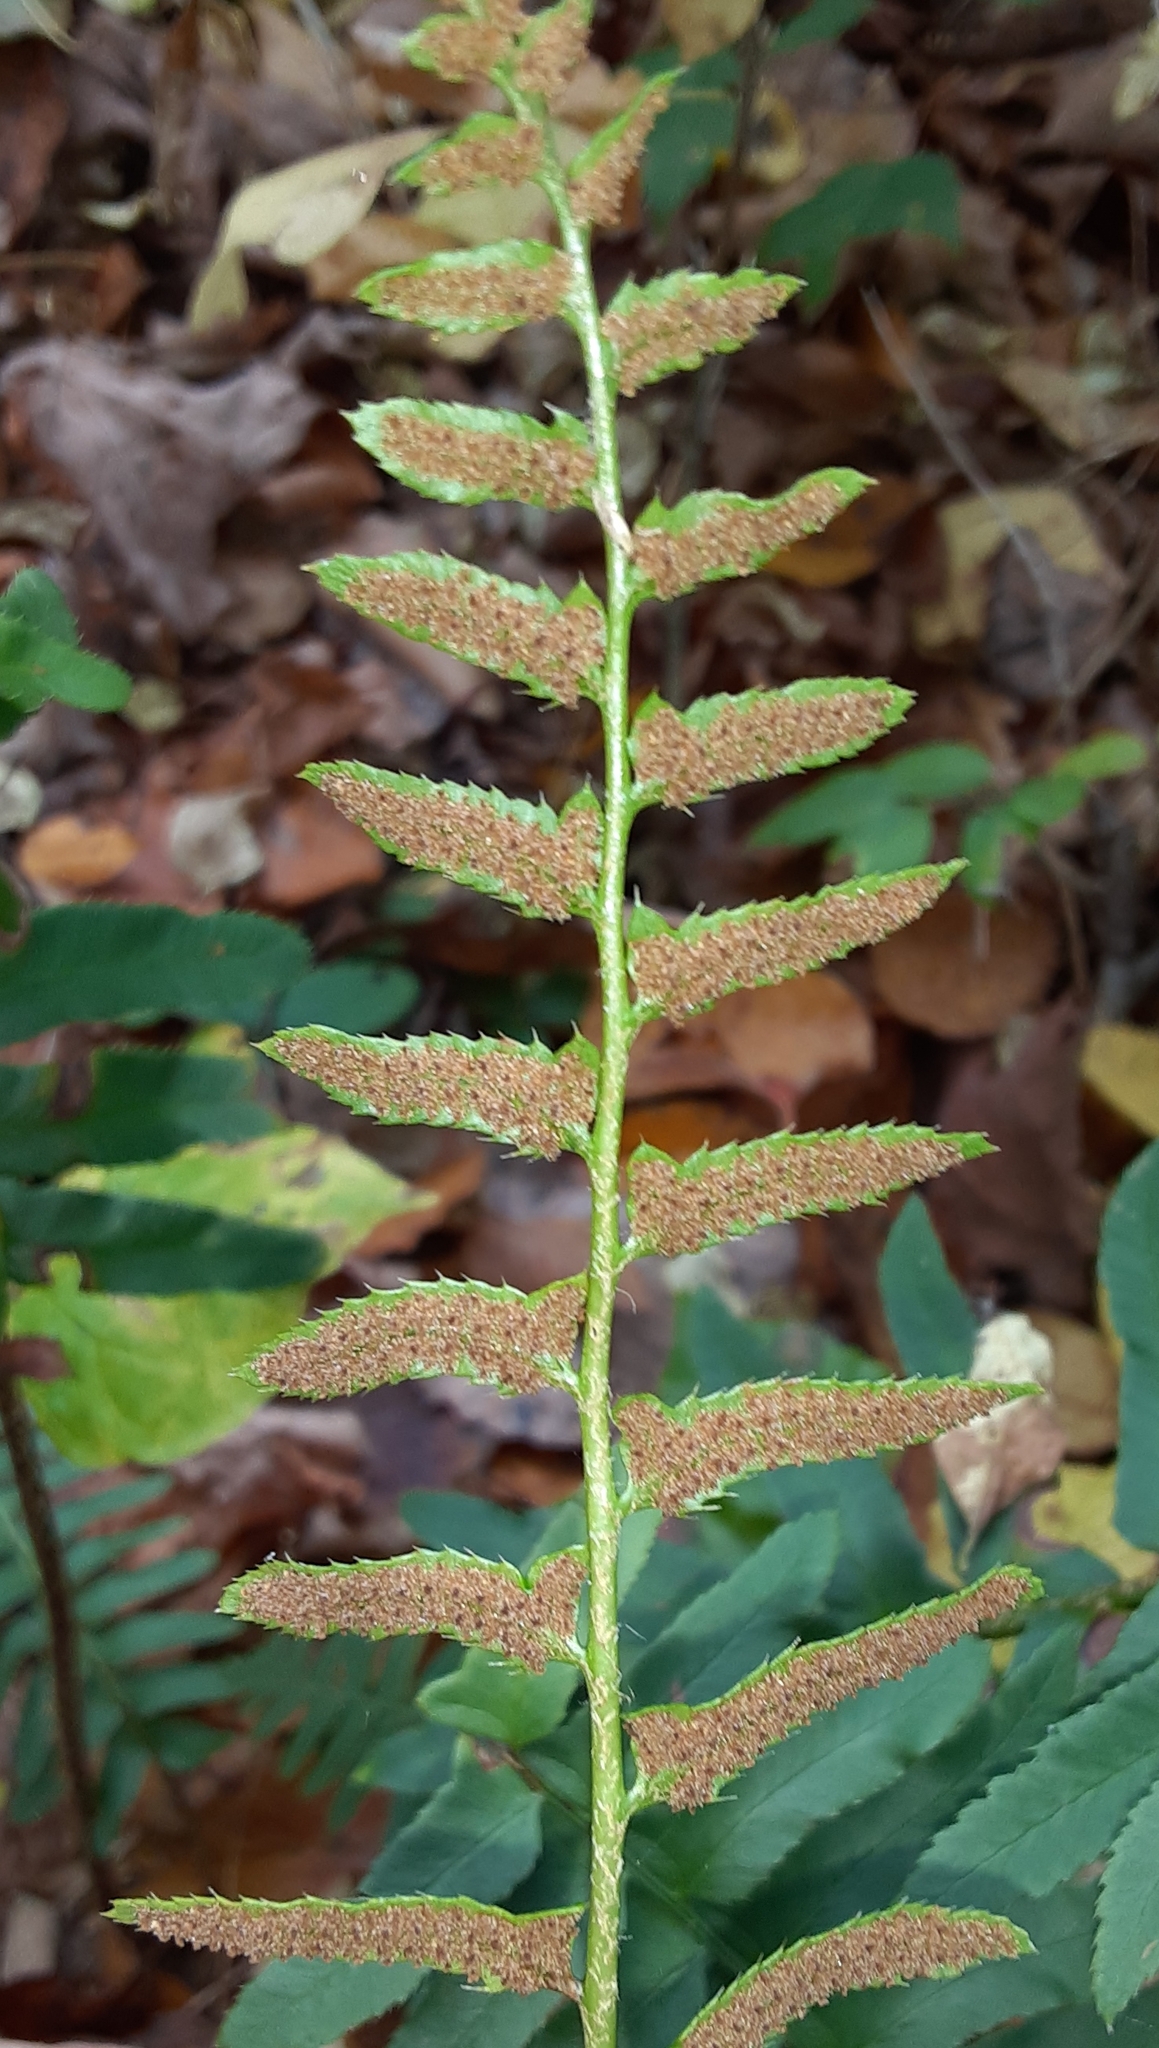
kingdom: Plantae
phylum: Tracheophyta
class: Polypodiopsida
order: Polypodiales
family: Dryopteridaceae
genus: Polystichum
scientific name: Polystichum acrostichoides
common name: Christmas fern
